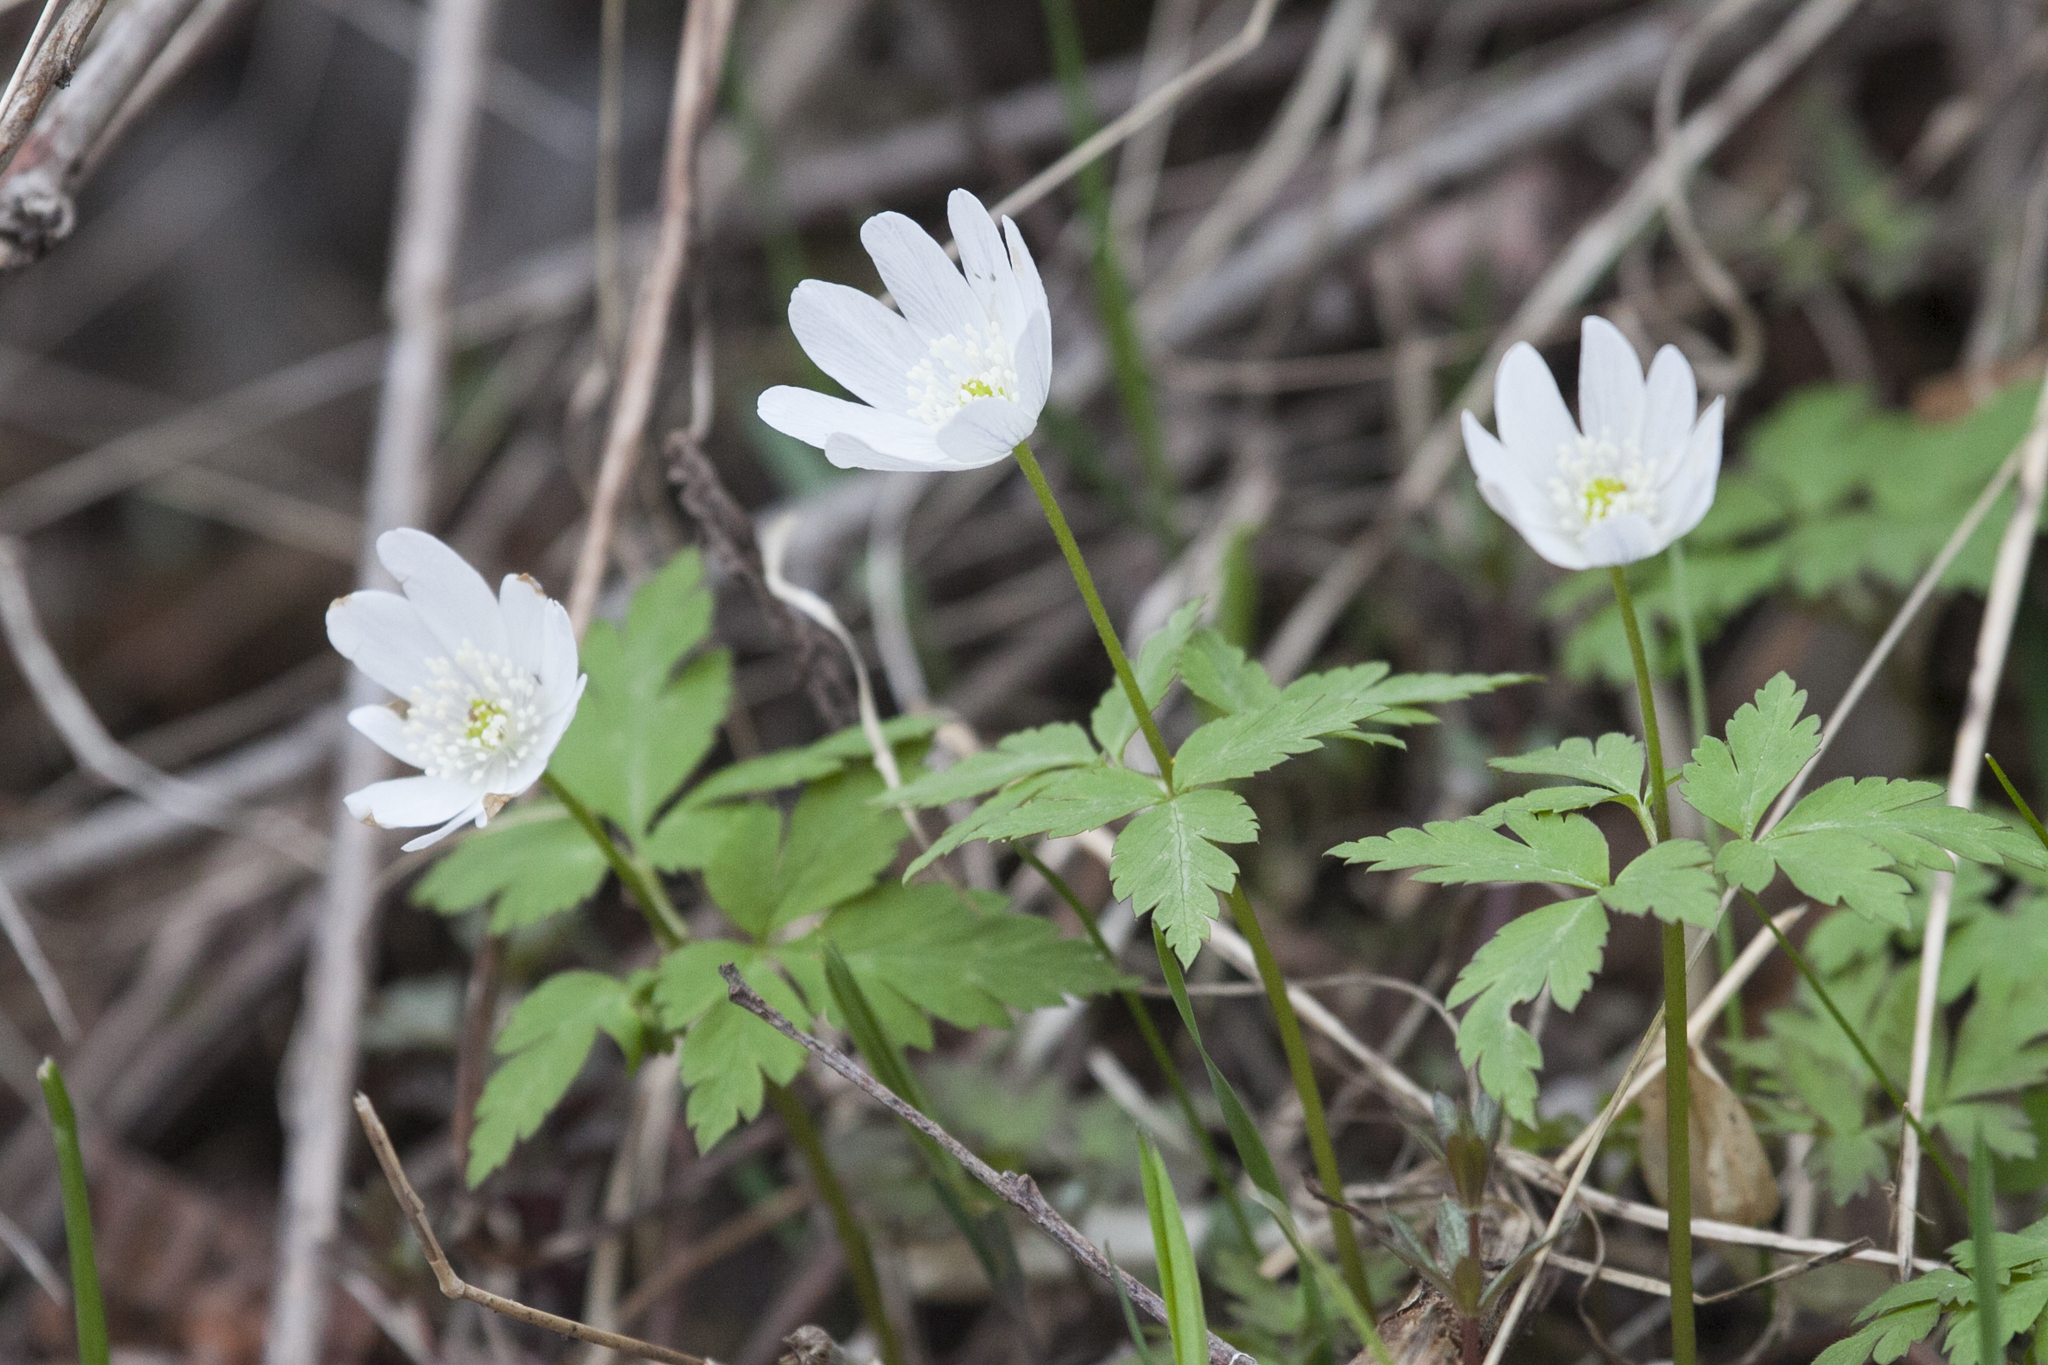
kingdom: Plantae
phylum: Tracheophyta
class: Magnoliopsida
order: Ranunculales
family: Ranunculaceae
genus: Anemone
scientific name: Anemone altaica
